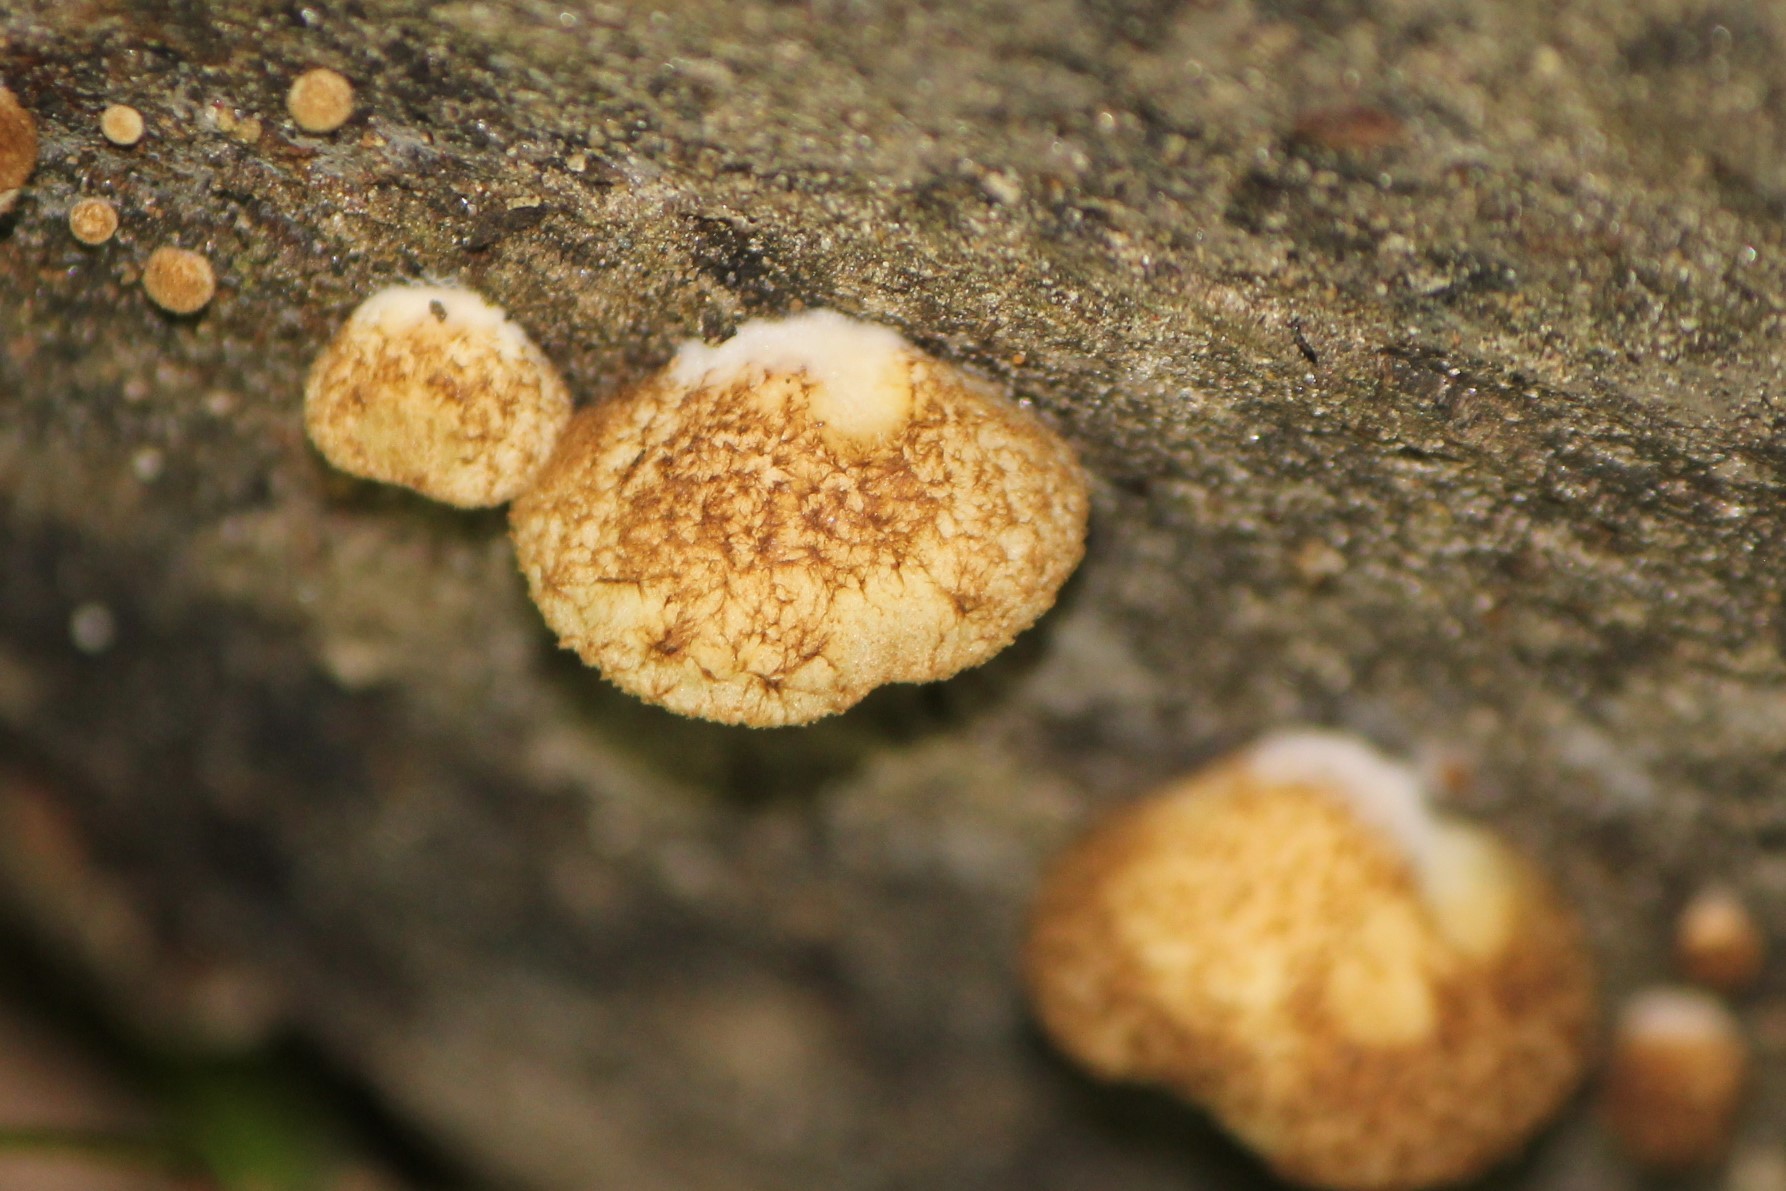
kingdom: Fungi
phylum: Basidiomycota
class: Agaricomycetes
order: Agaricales
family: Crepidotaceae
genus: Crepidotus
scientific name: Crepidotus crocophyllus
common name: Saffron oysterling
